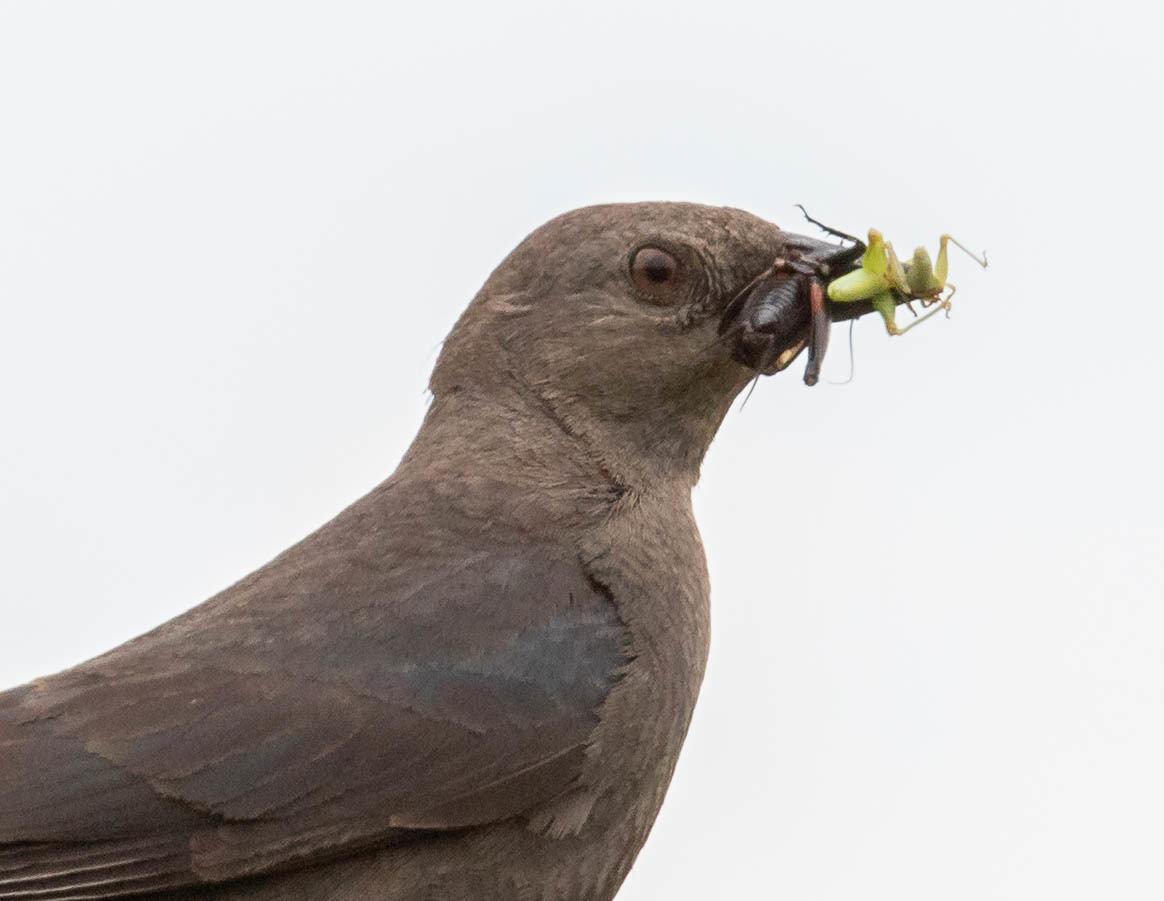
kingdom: Animalia
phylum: Chordata
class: Aves
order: Passeriformes
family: Icteridae
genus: Euphagus
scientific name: Euphagus cyanocephalus
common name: Brewer's blackbird
